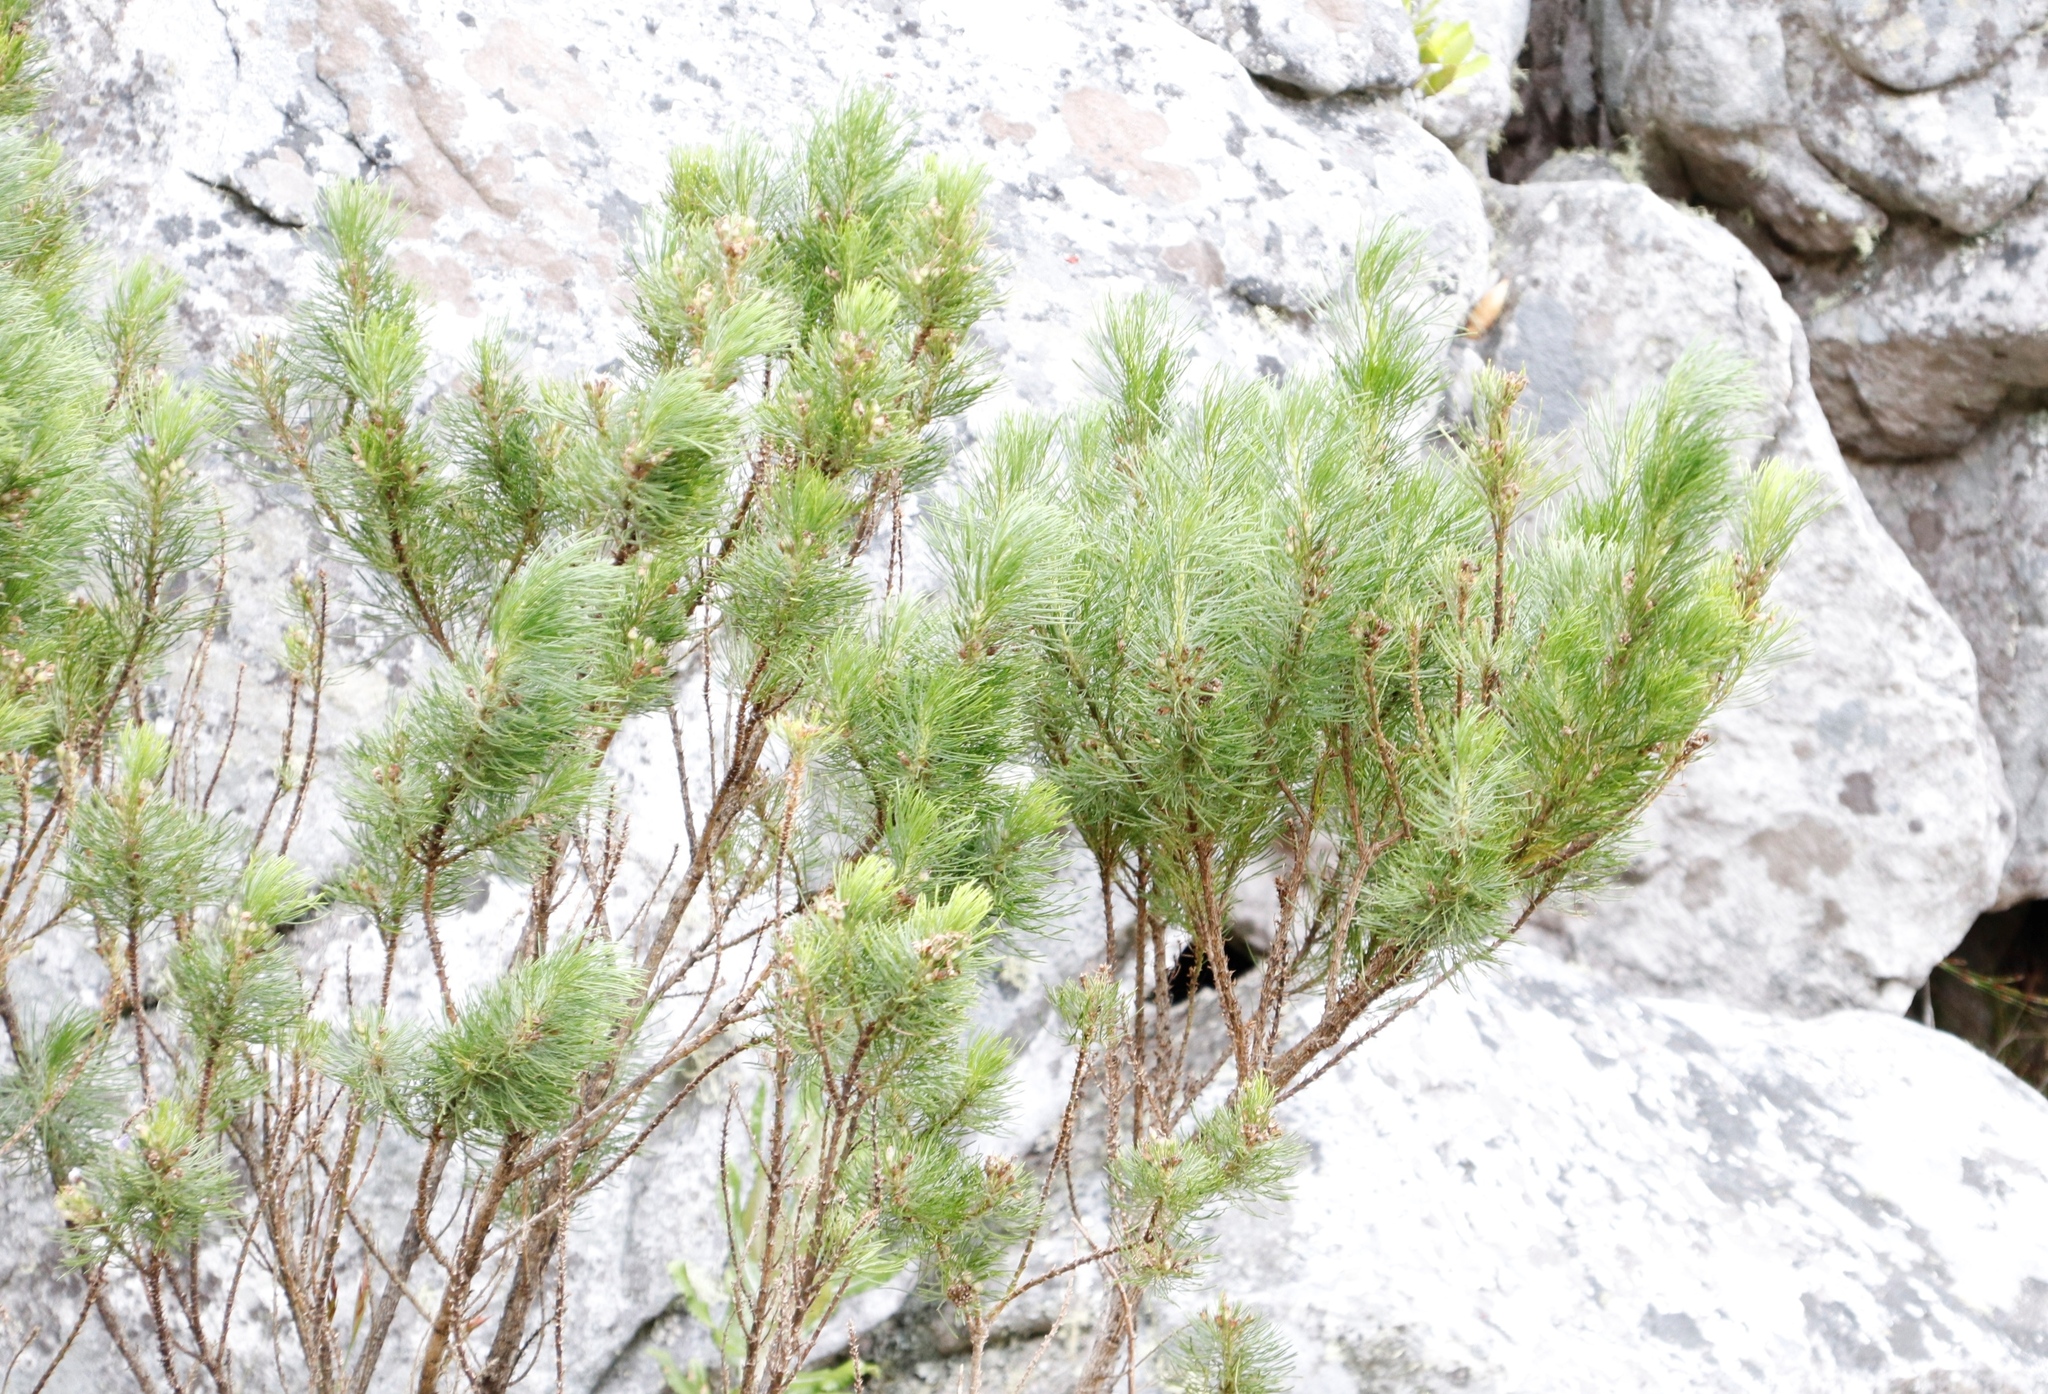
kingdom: Plantae
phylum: Tracheophyta
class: Magnoliopsida
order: Fabales
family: Fabaceae
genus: Psoralea
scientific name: Psoralea pinnata
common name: African scurfpea
